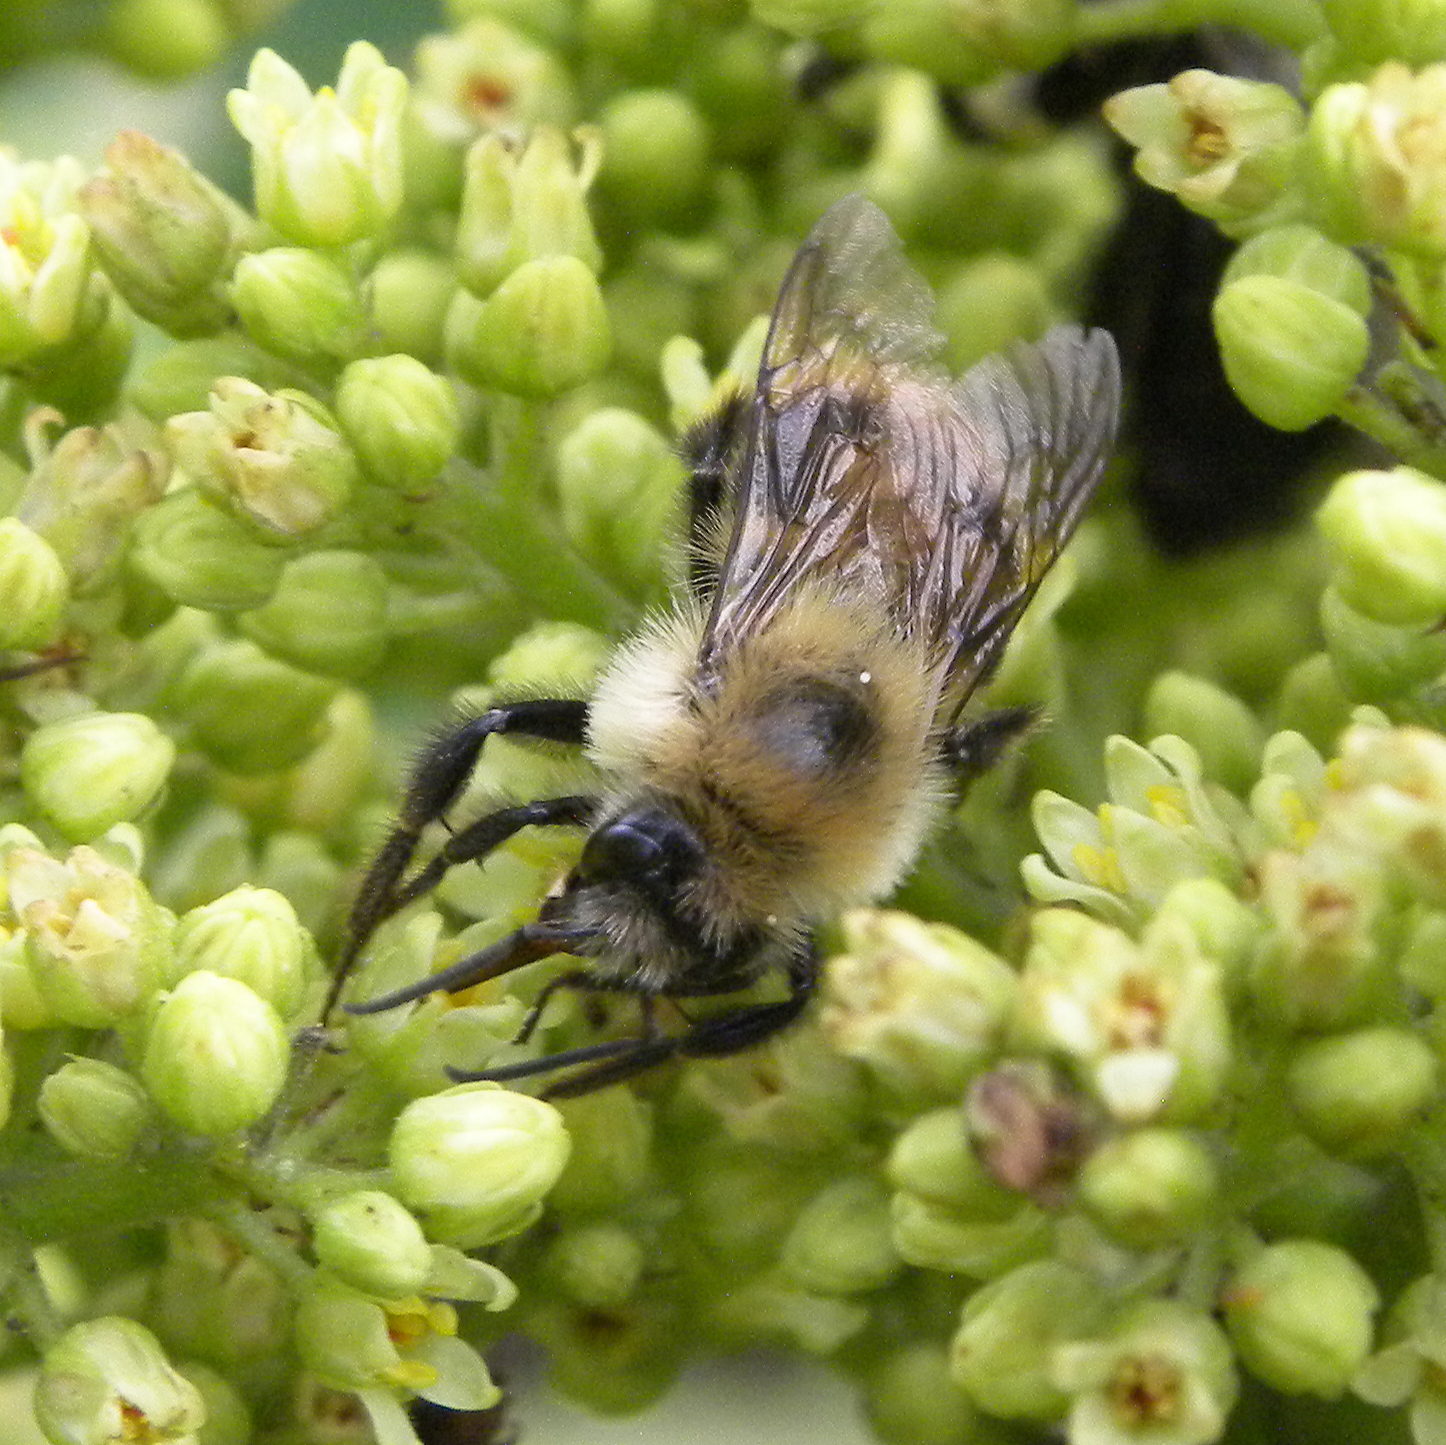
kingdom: Animalia
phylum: Arthropoda
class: Insecta
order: Hymenoptera
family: Apidae
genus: Bombus
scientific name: Bombus bimaculatus
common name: Two-spotted bumble bee
